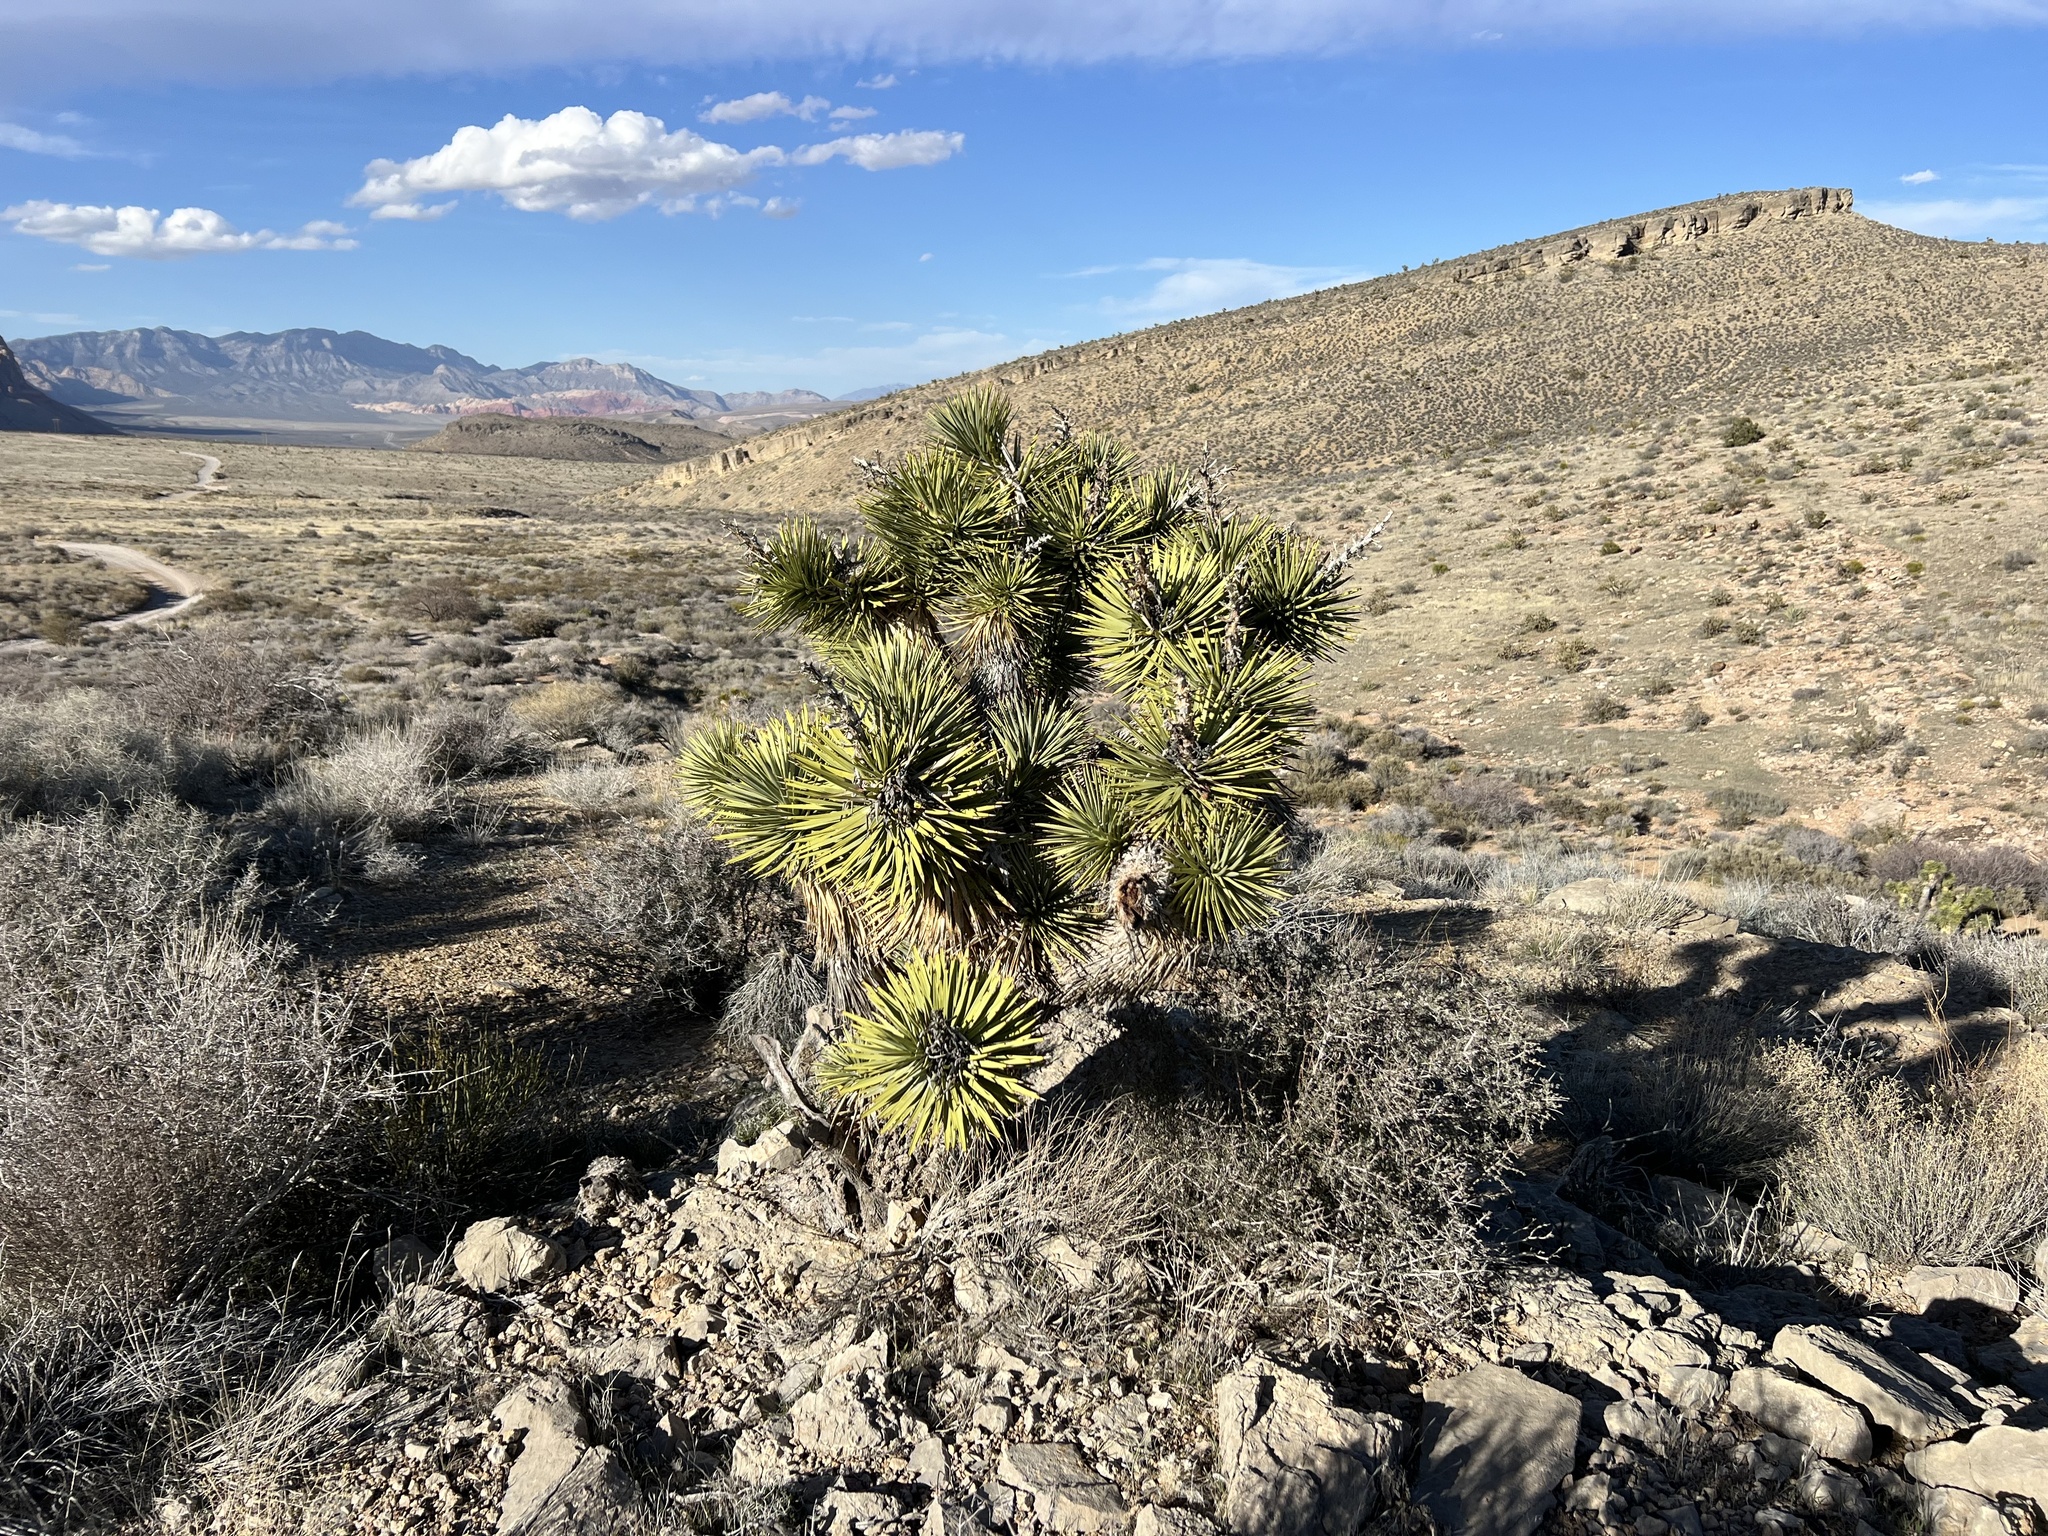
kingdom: Plantae
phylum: Tracheophyta
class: Liliopsida
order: Asparagales
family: Asparagaceae
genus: Yucca
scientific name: Yucca brevifolia
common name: Joshua tree
